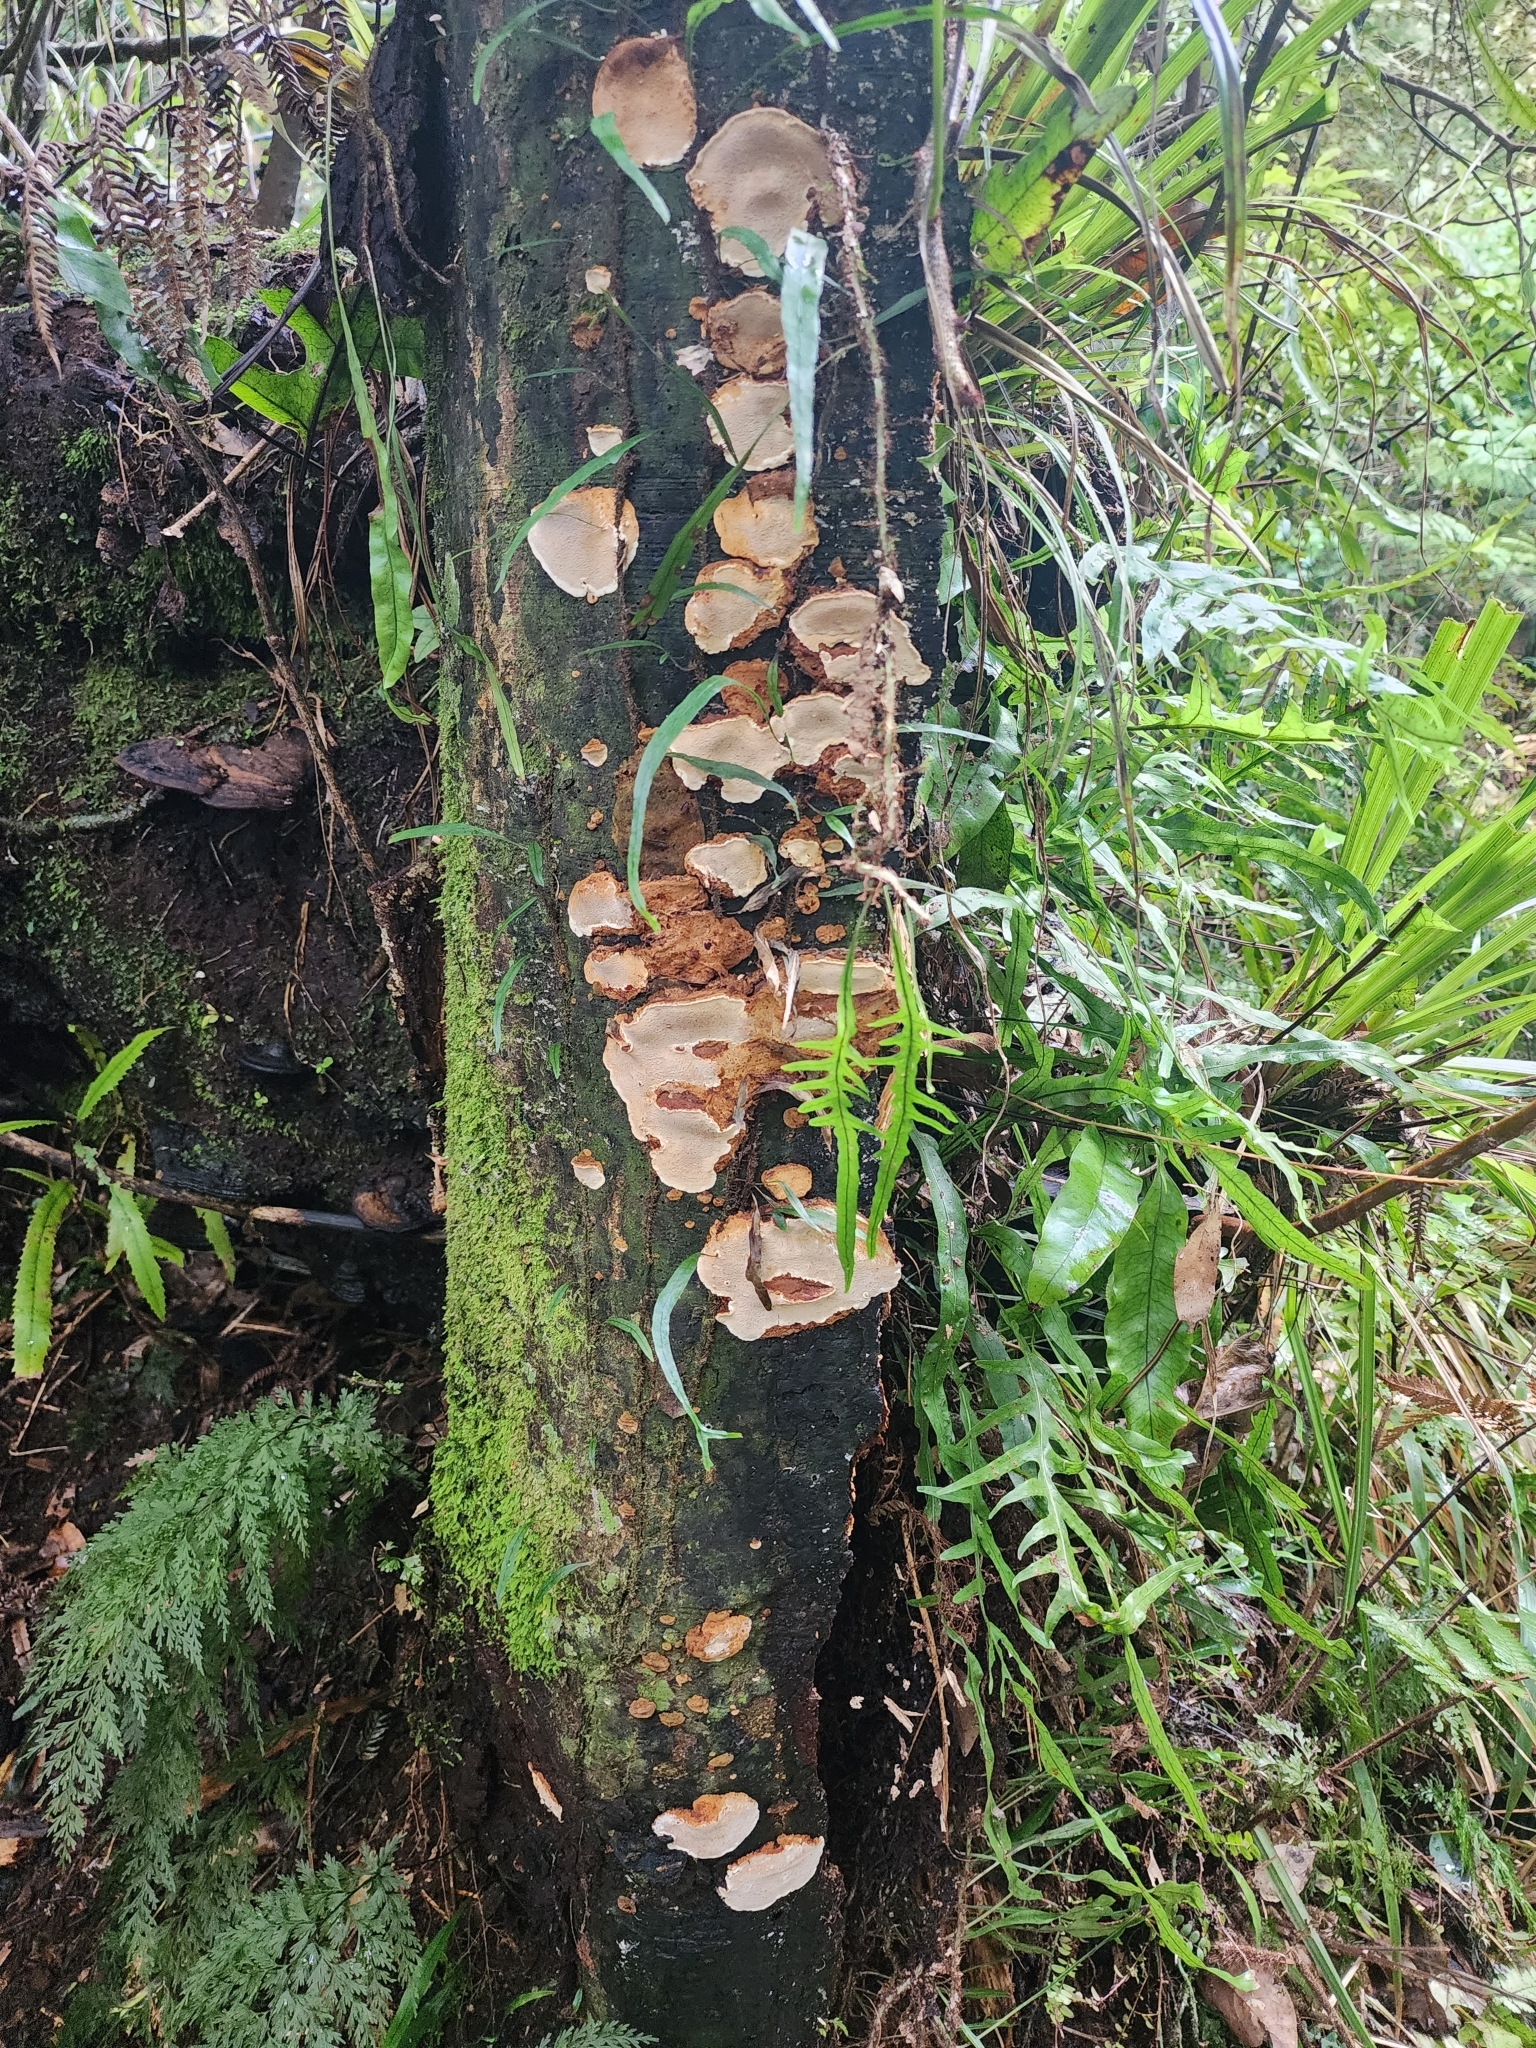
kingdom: Fungi
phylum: Basidiomycota
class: Agaricomycetes
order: Polyporales
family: Polyporaceae
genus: Australoporus
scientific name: Australoporus tasmanicus
